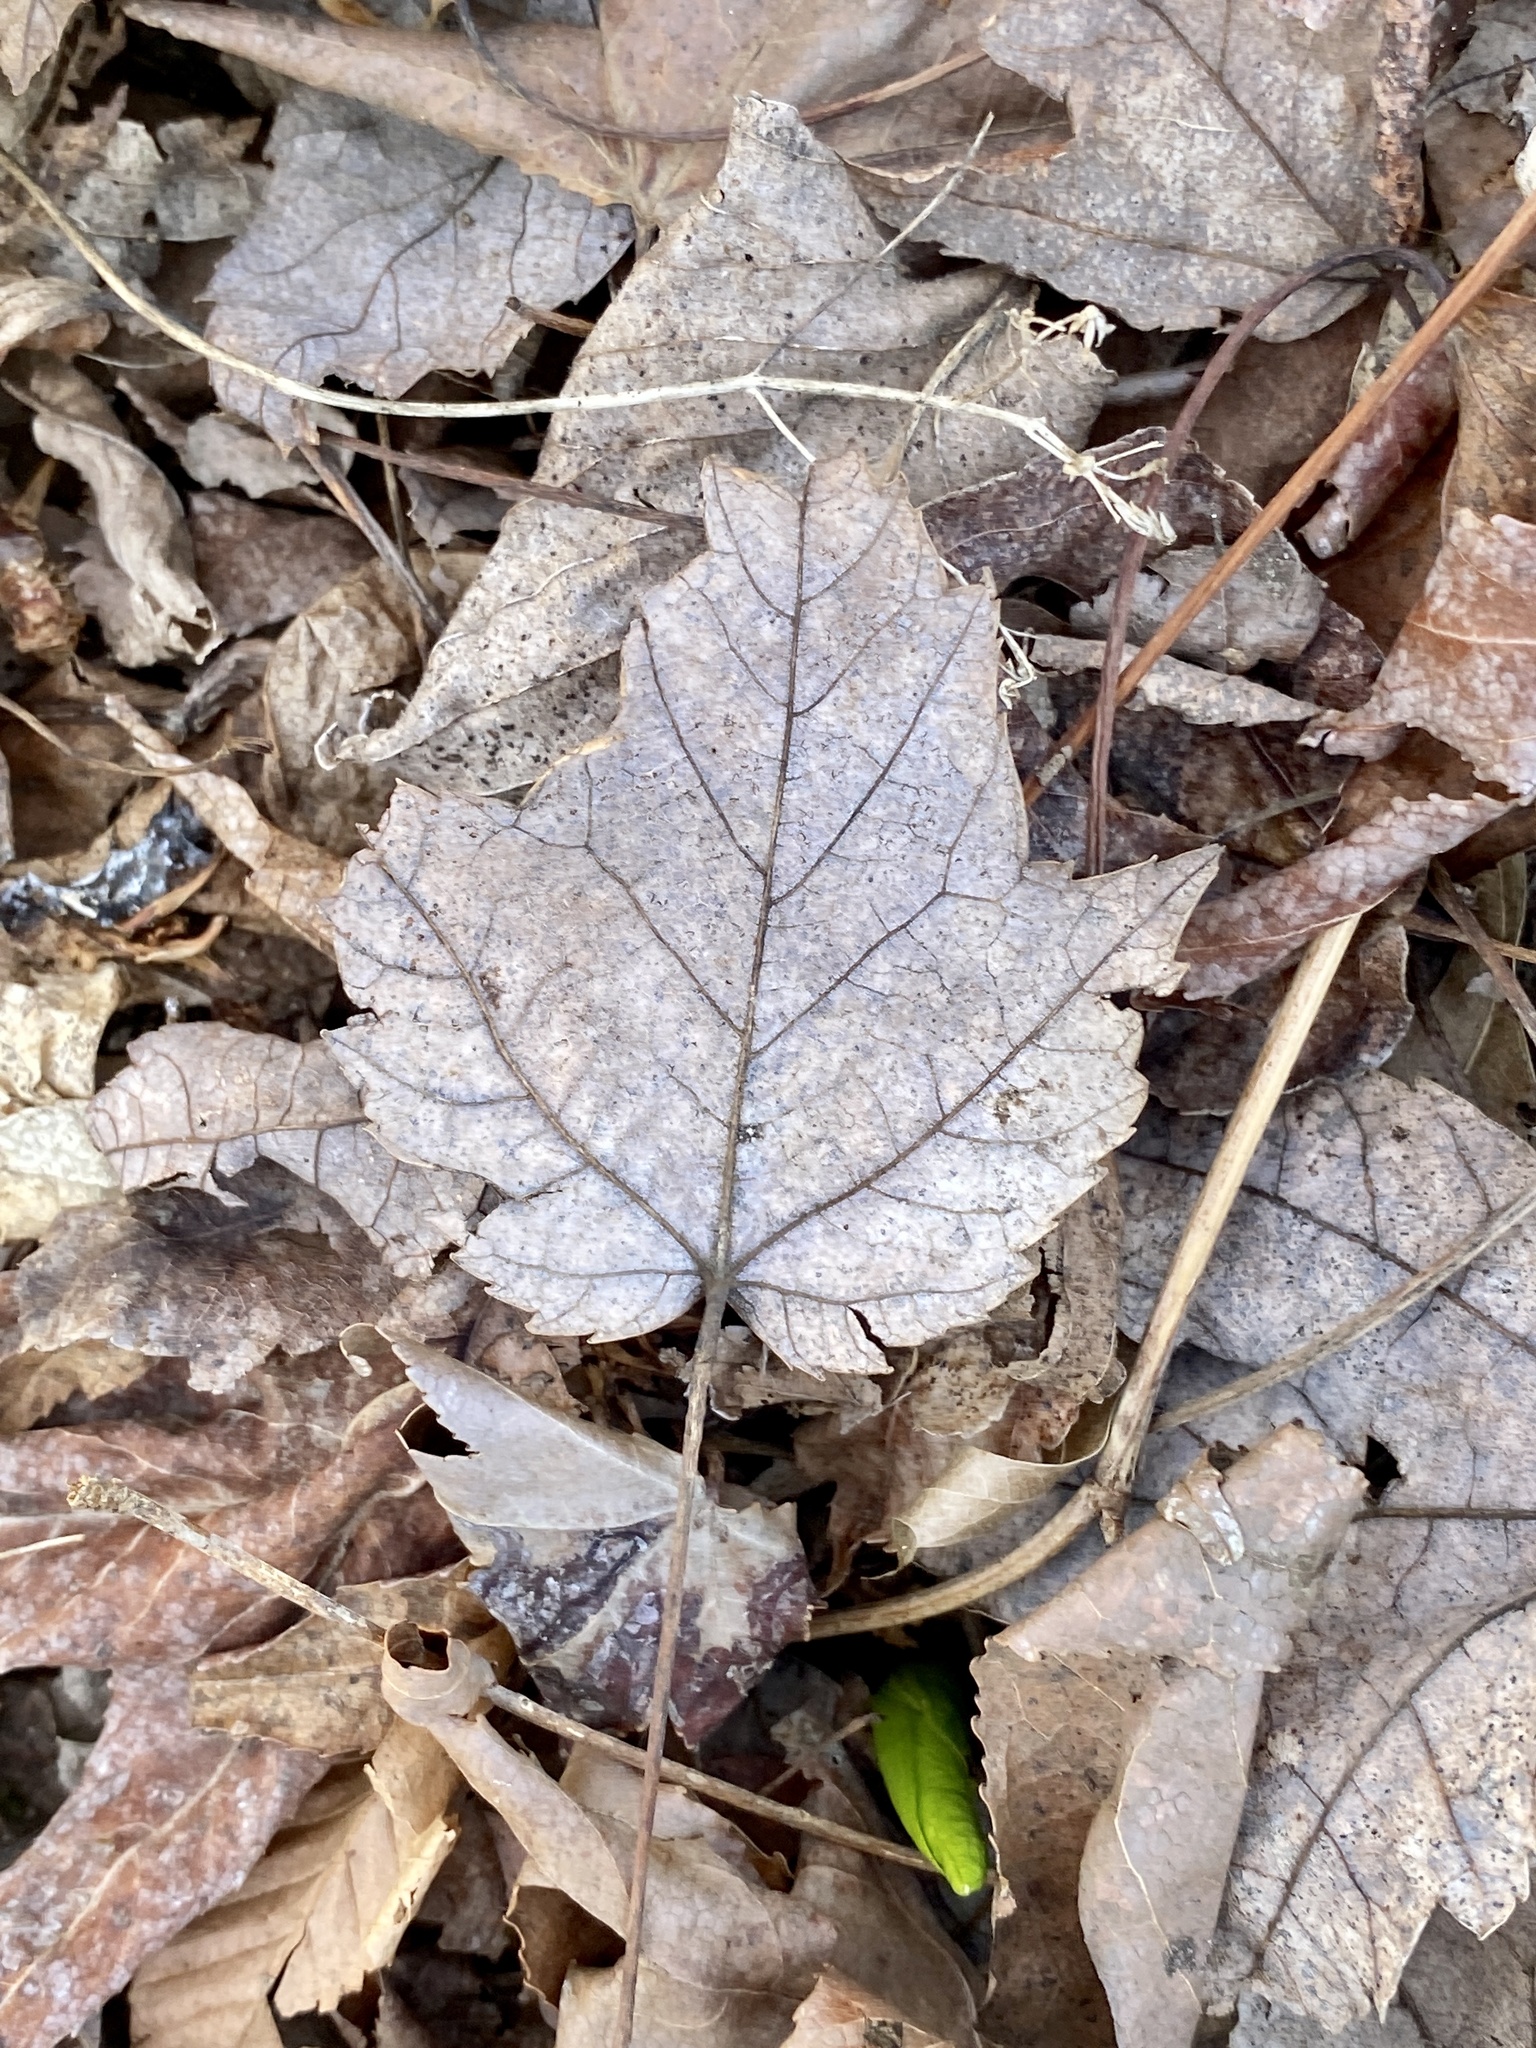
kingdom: Plantae
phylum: Tracheophyta
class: Magnoliopsida
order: Sapindales
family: Sapindaceae
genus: Acer
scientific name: Acer rubrum
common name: Red maple
